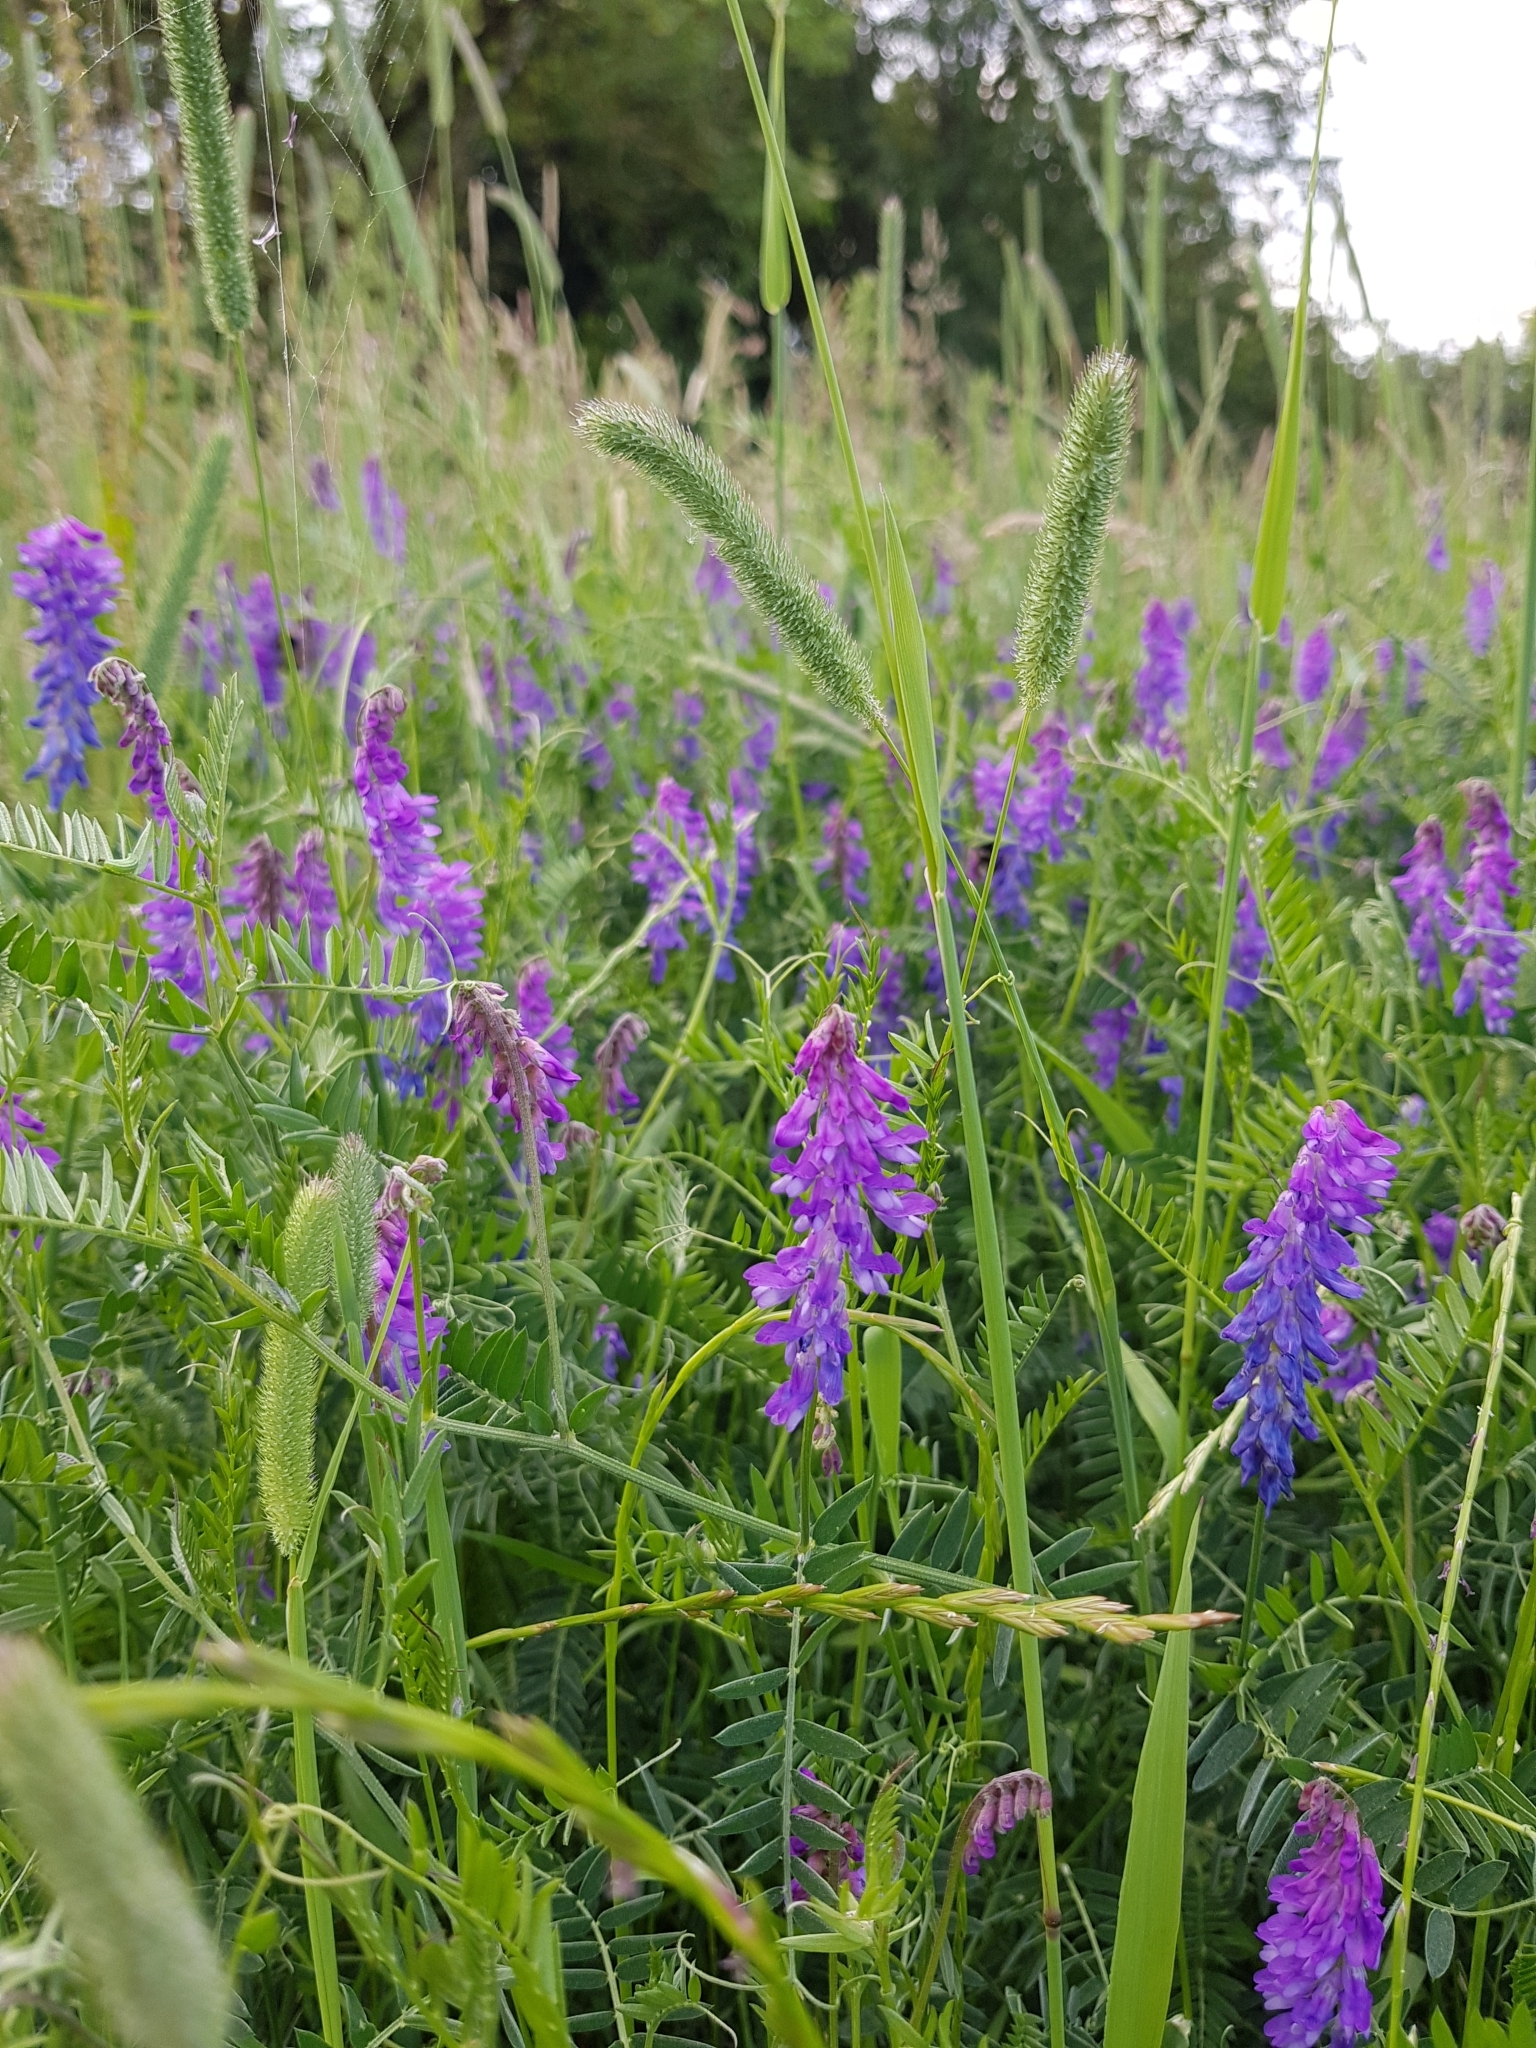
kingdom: Plantae
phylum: Tracheophyta
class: Magnoliopsida
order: Fabales
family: Fabaceae
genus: Vicia
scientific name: Vicia cracca
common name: Bird vetch
